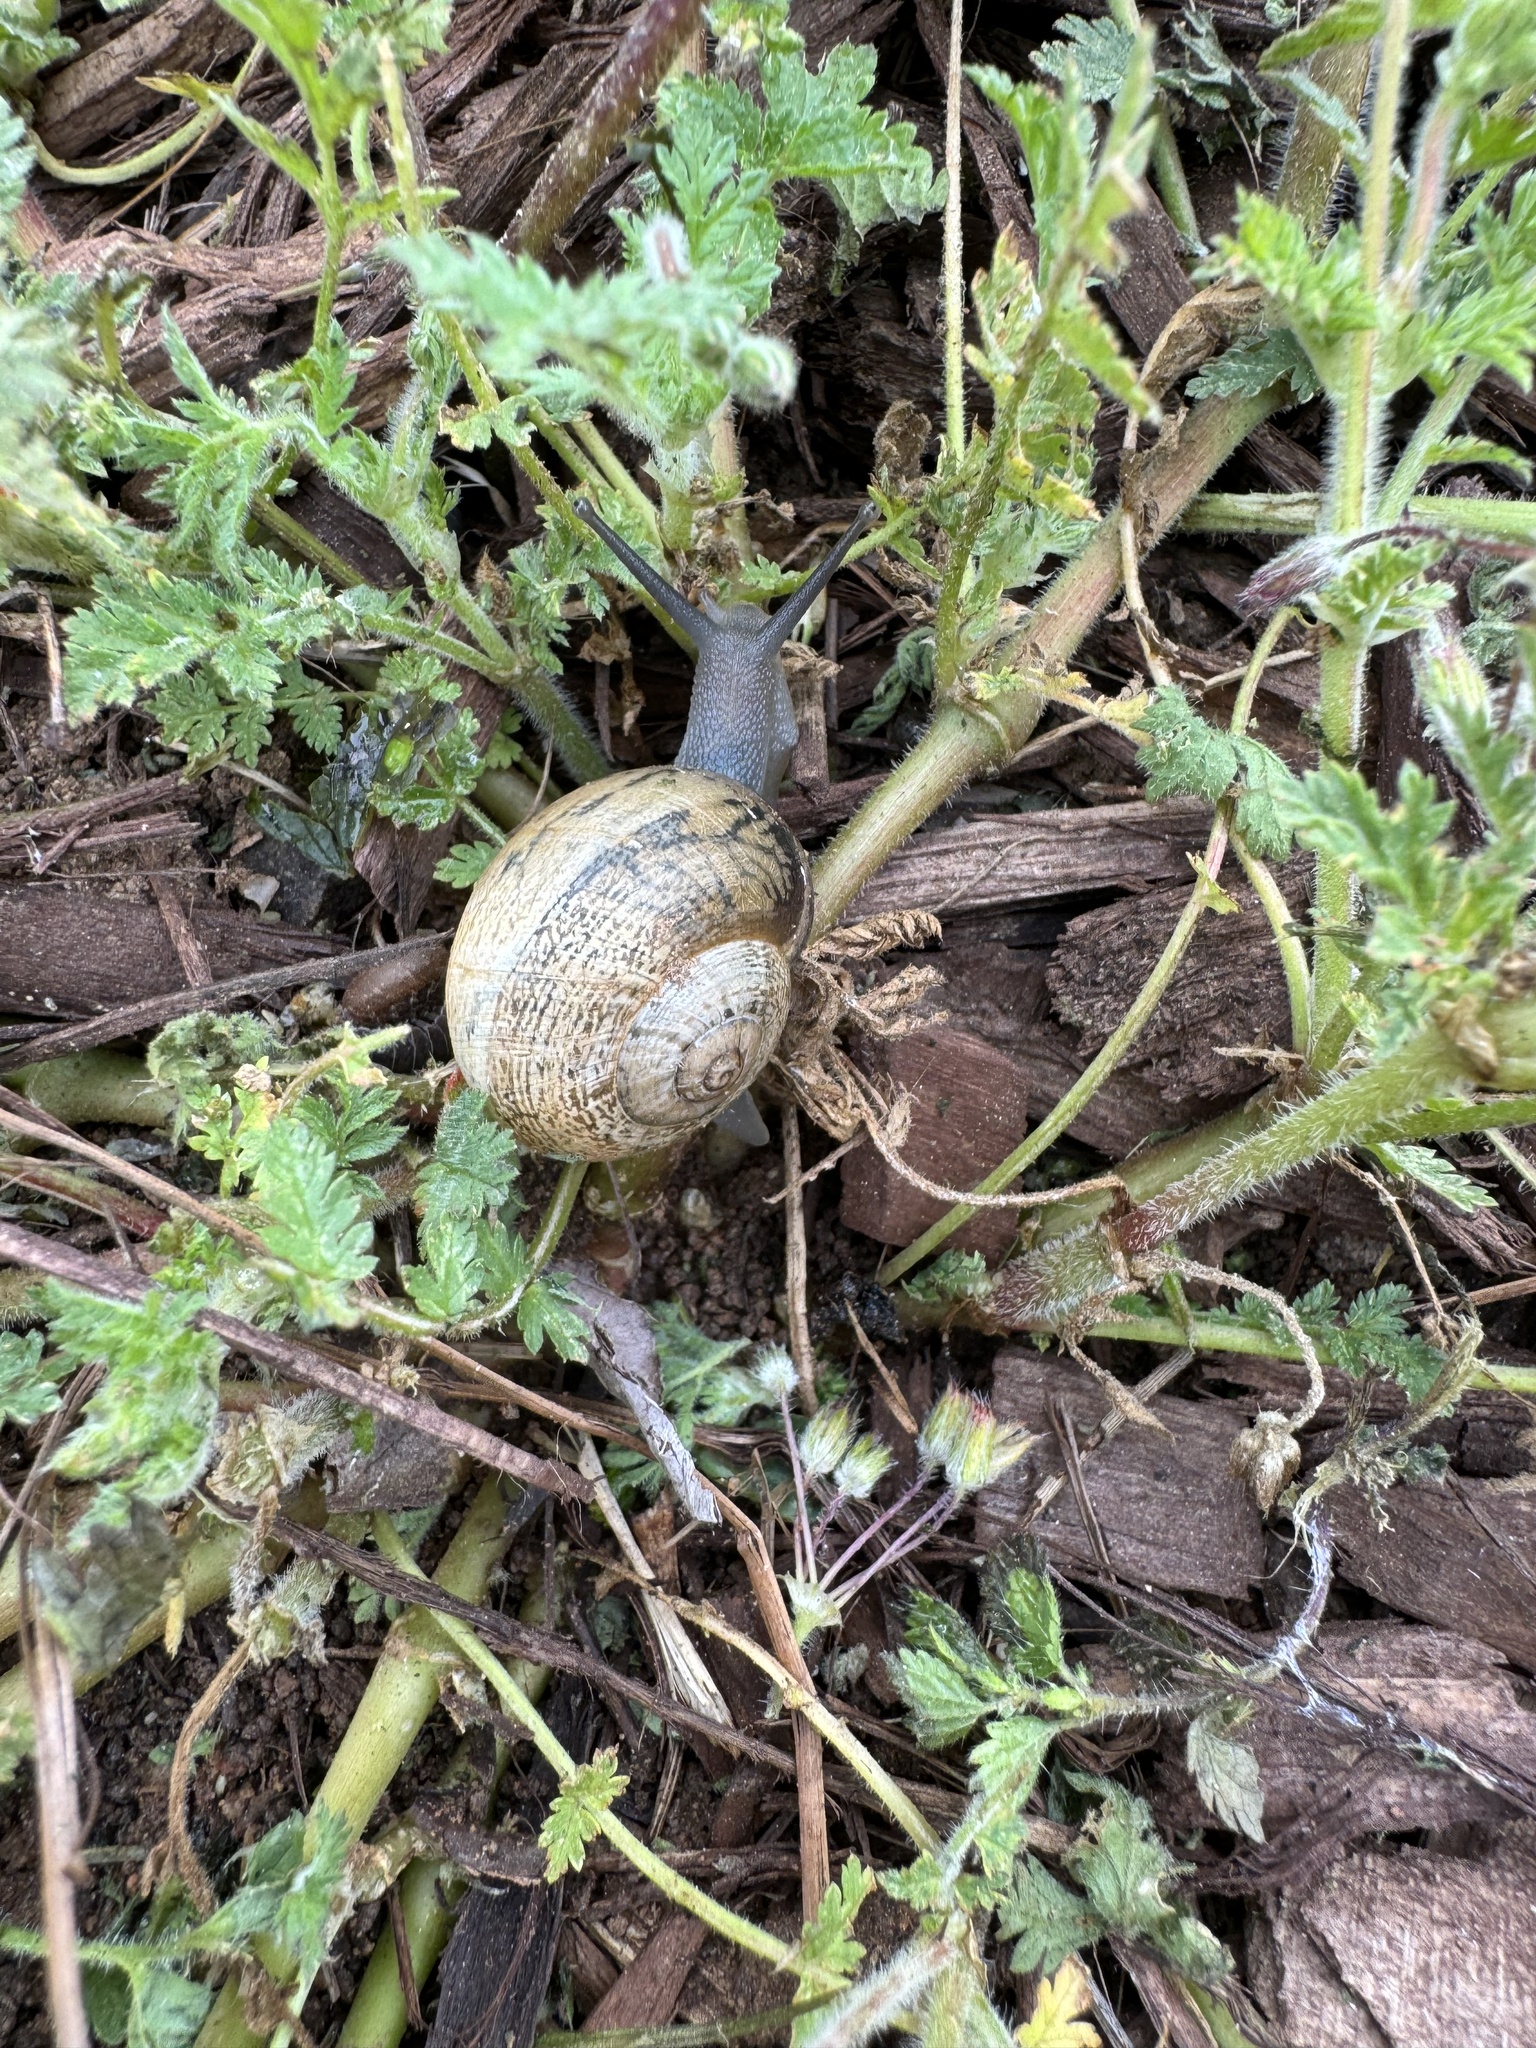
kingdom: Animalia
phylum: Mollusca
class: Gastropoda
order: Stylommatophora
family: Helicidae
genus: Otala
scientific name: Otala lactea
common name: Milk snail
